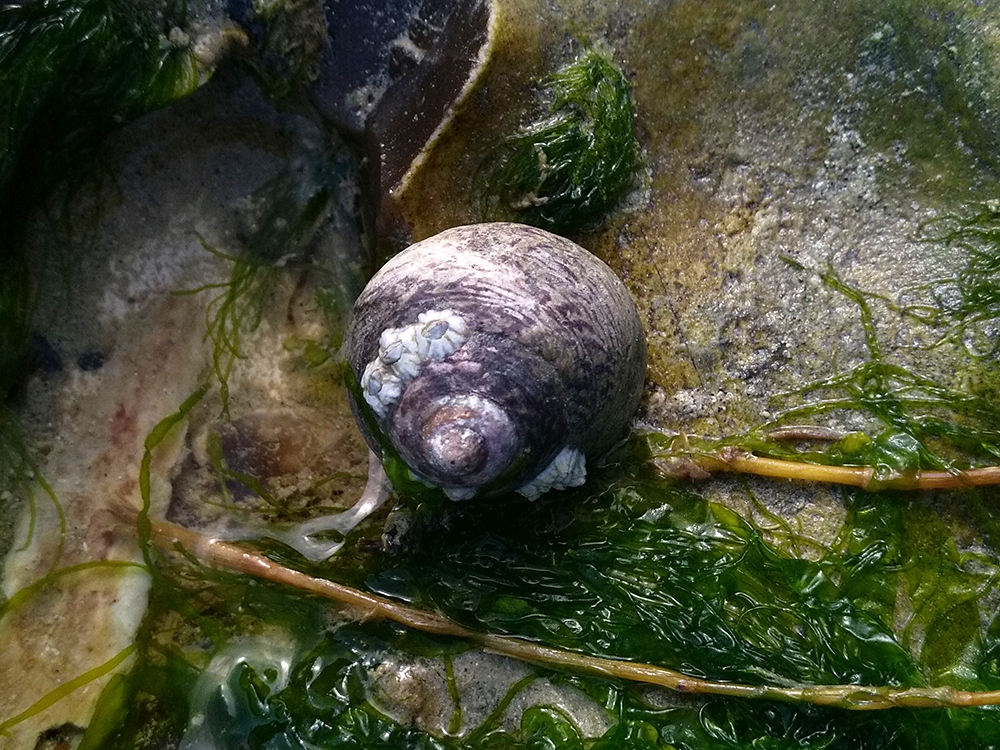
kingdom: Animalia
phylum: Mollusca
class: Gastropoda
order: Trochida
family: Trochidae
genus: Phorcus
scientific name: Phorcus lineatus
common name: Toothed top shell
